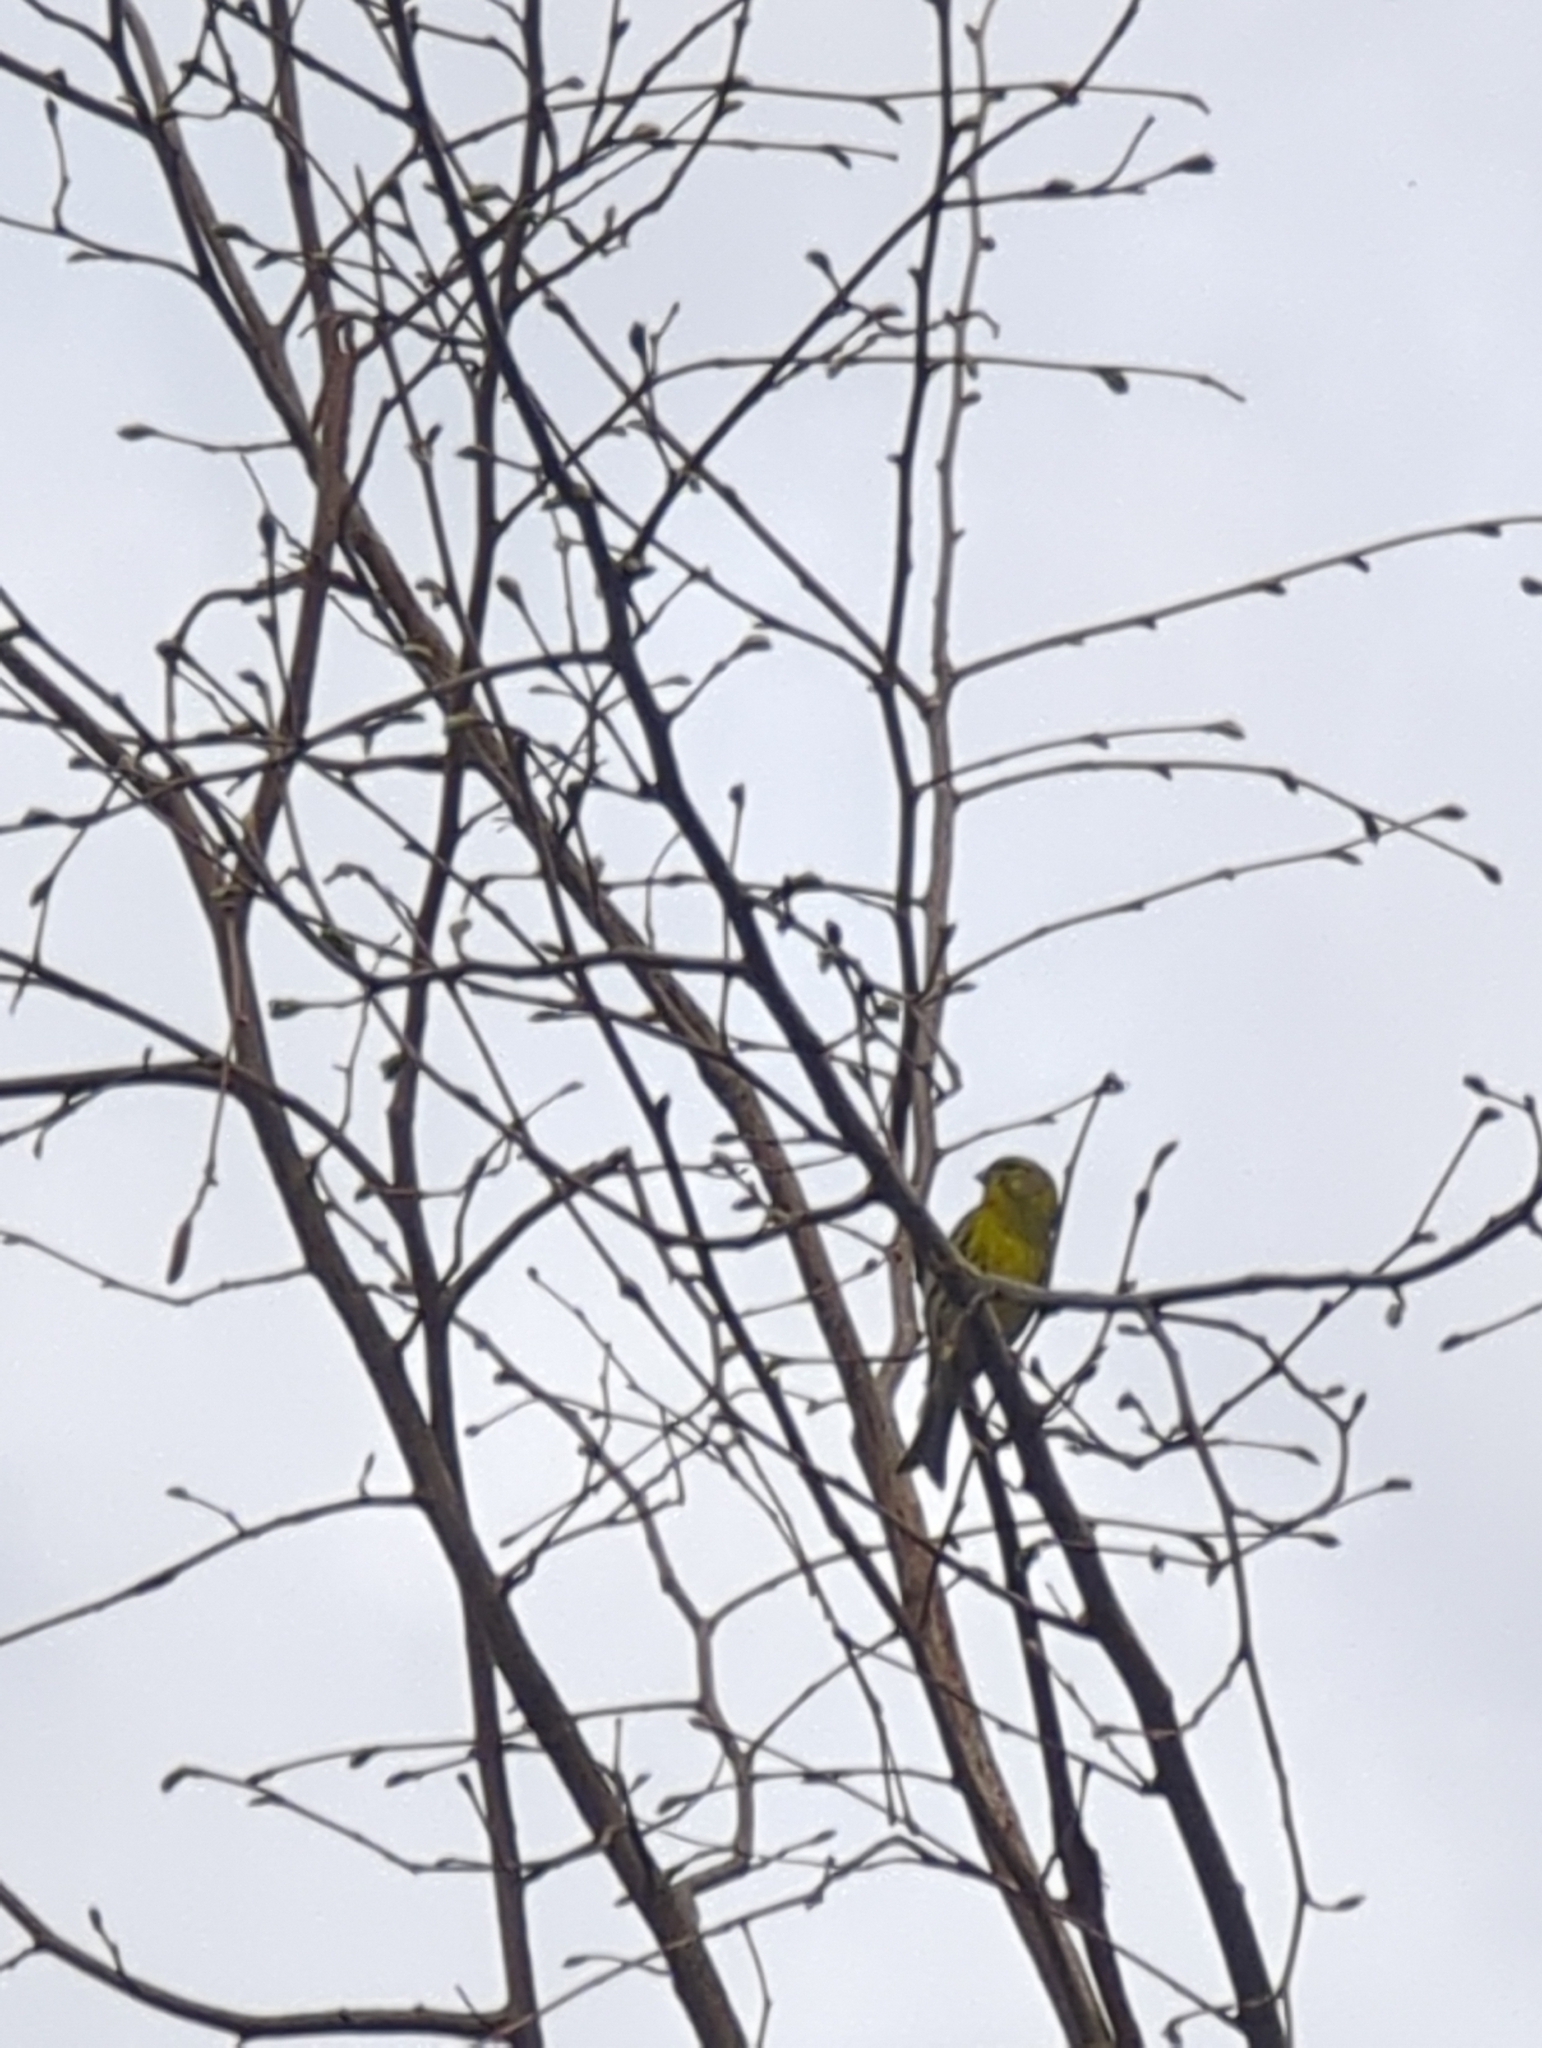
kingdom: Animalia
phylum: Chordata
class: Aves
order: Passeriformes
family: Fringillidae
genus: Serinus
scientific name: Serinus serinus
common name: European serin
